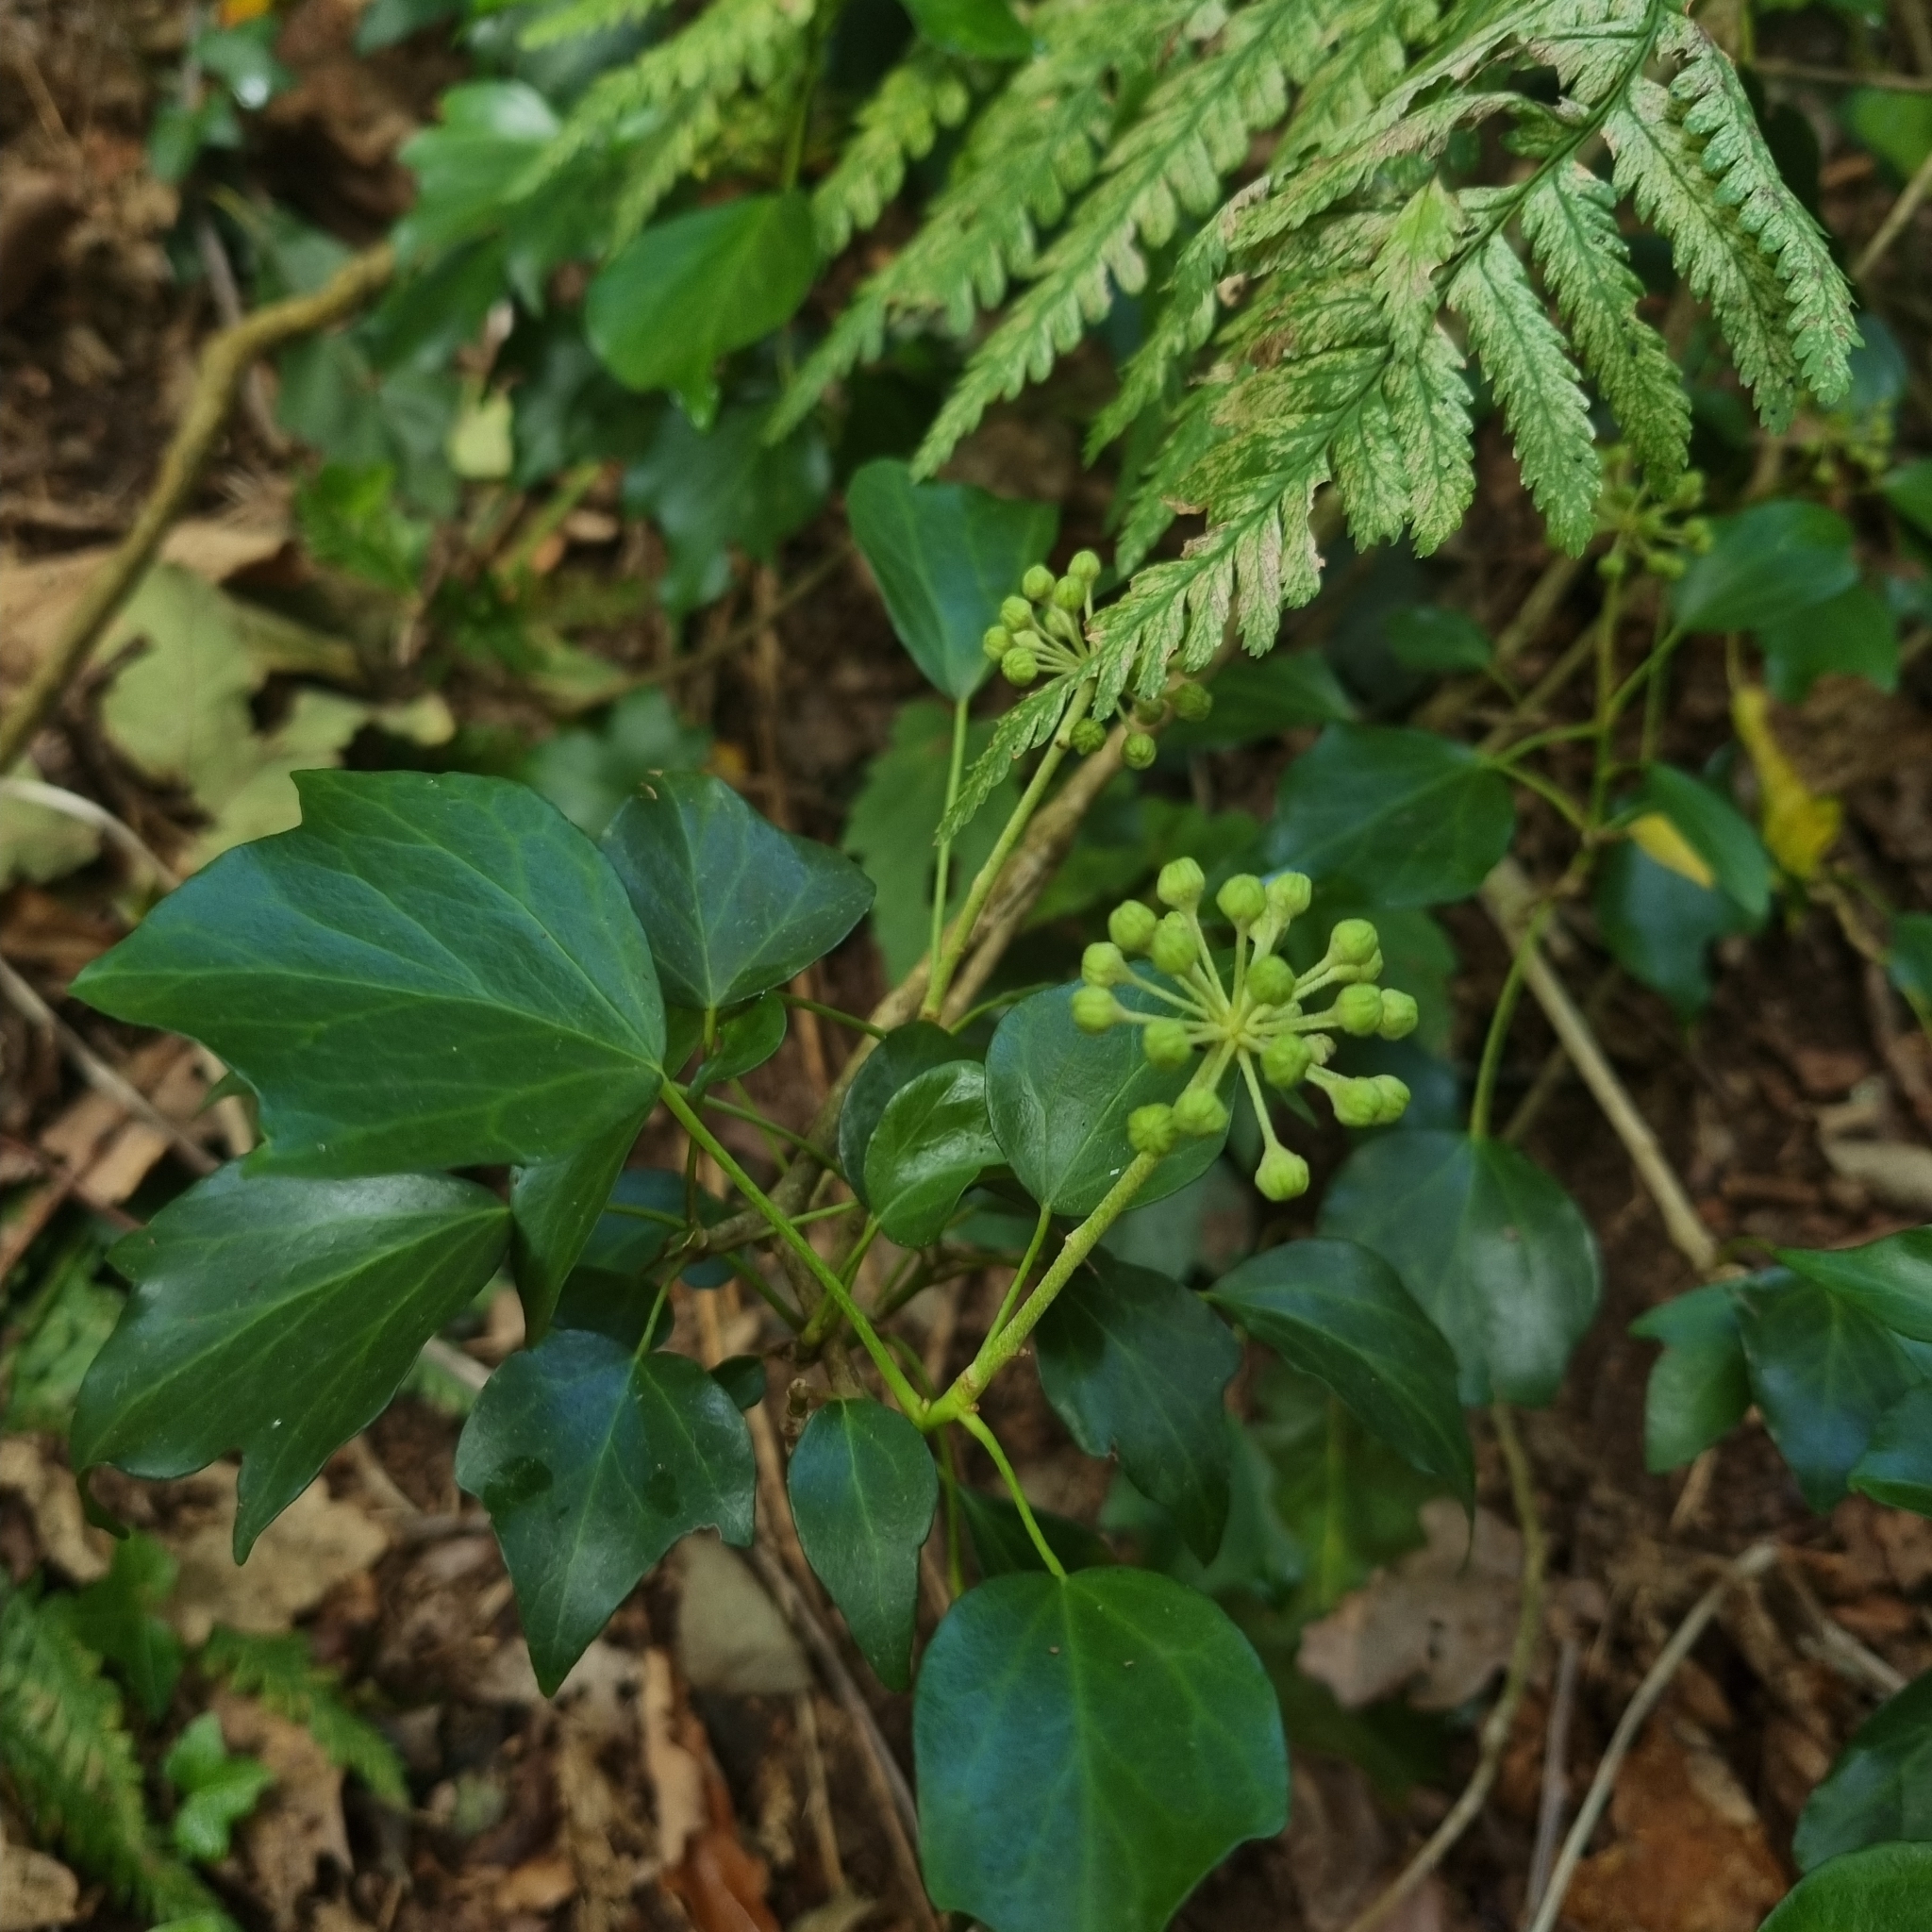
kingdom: Plantae
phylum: Tracheophyta
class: Magnoliopsida
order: Apiales
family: Araliaceae
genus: Hedera
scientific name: Hedera helix
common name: Ivy
